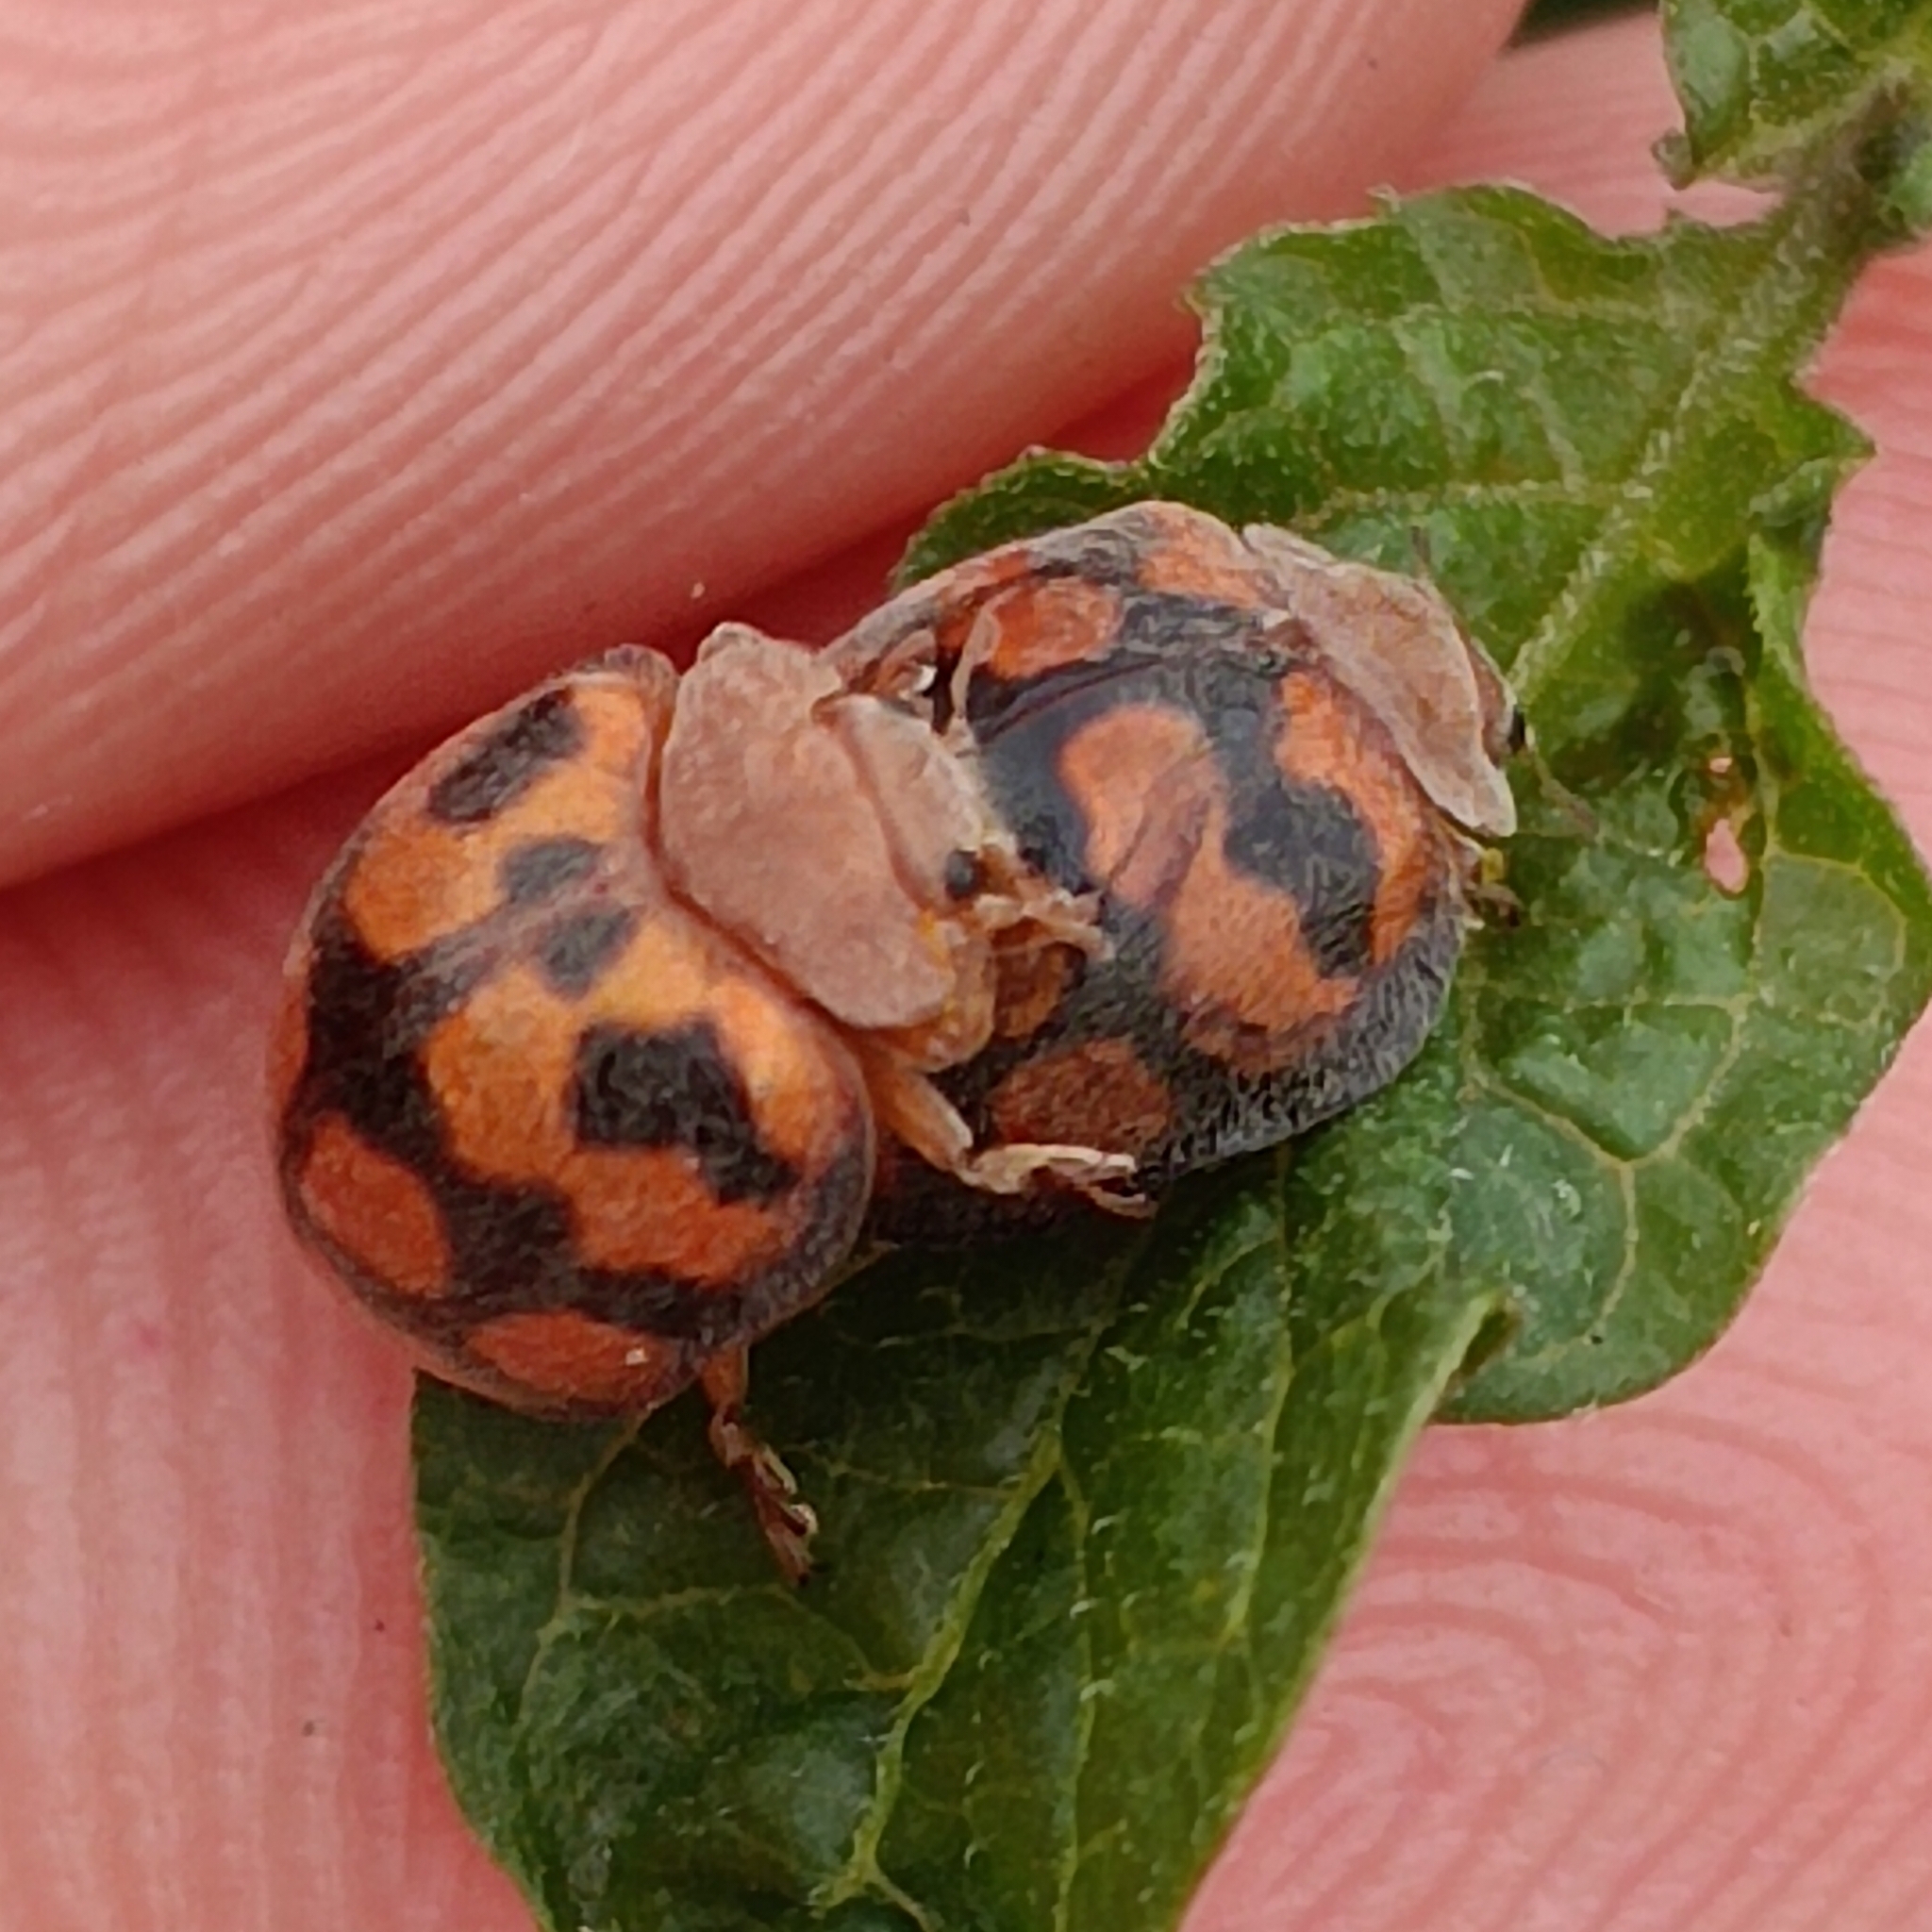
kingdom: Animalia
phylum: Arthropoda
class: Insecta
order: Coleoptera
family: Coccinellidae
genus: Chnootriba
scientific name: Chnootriba
